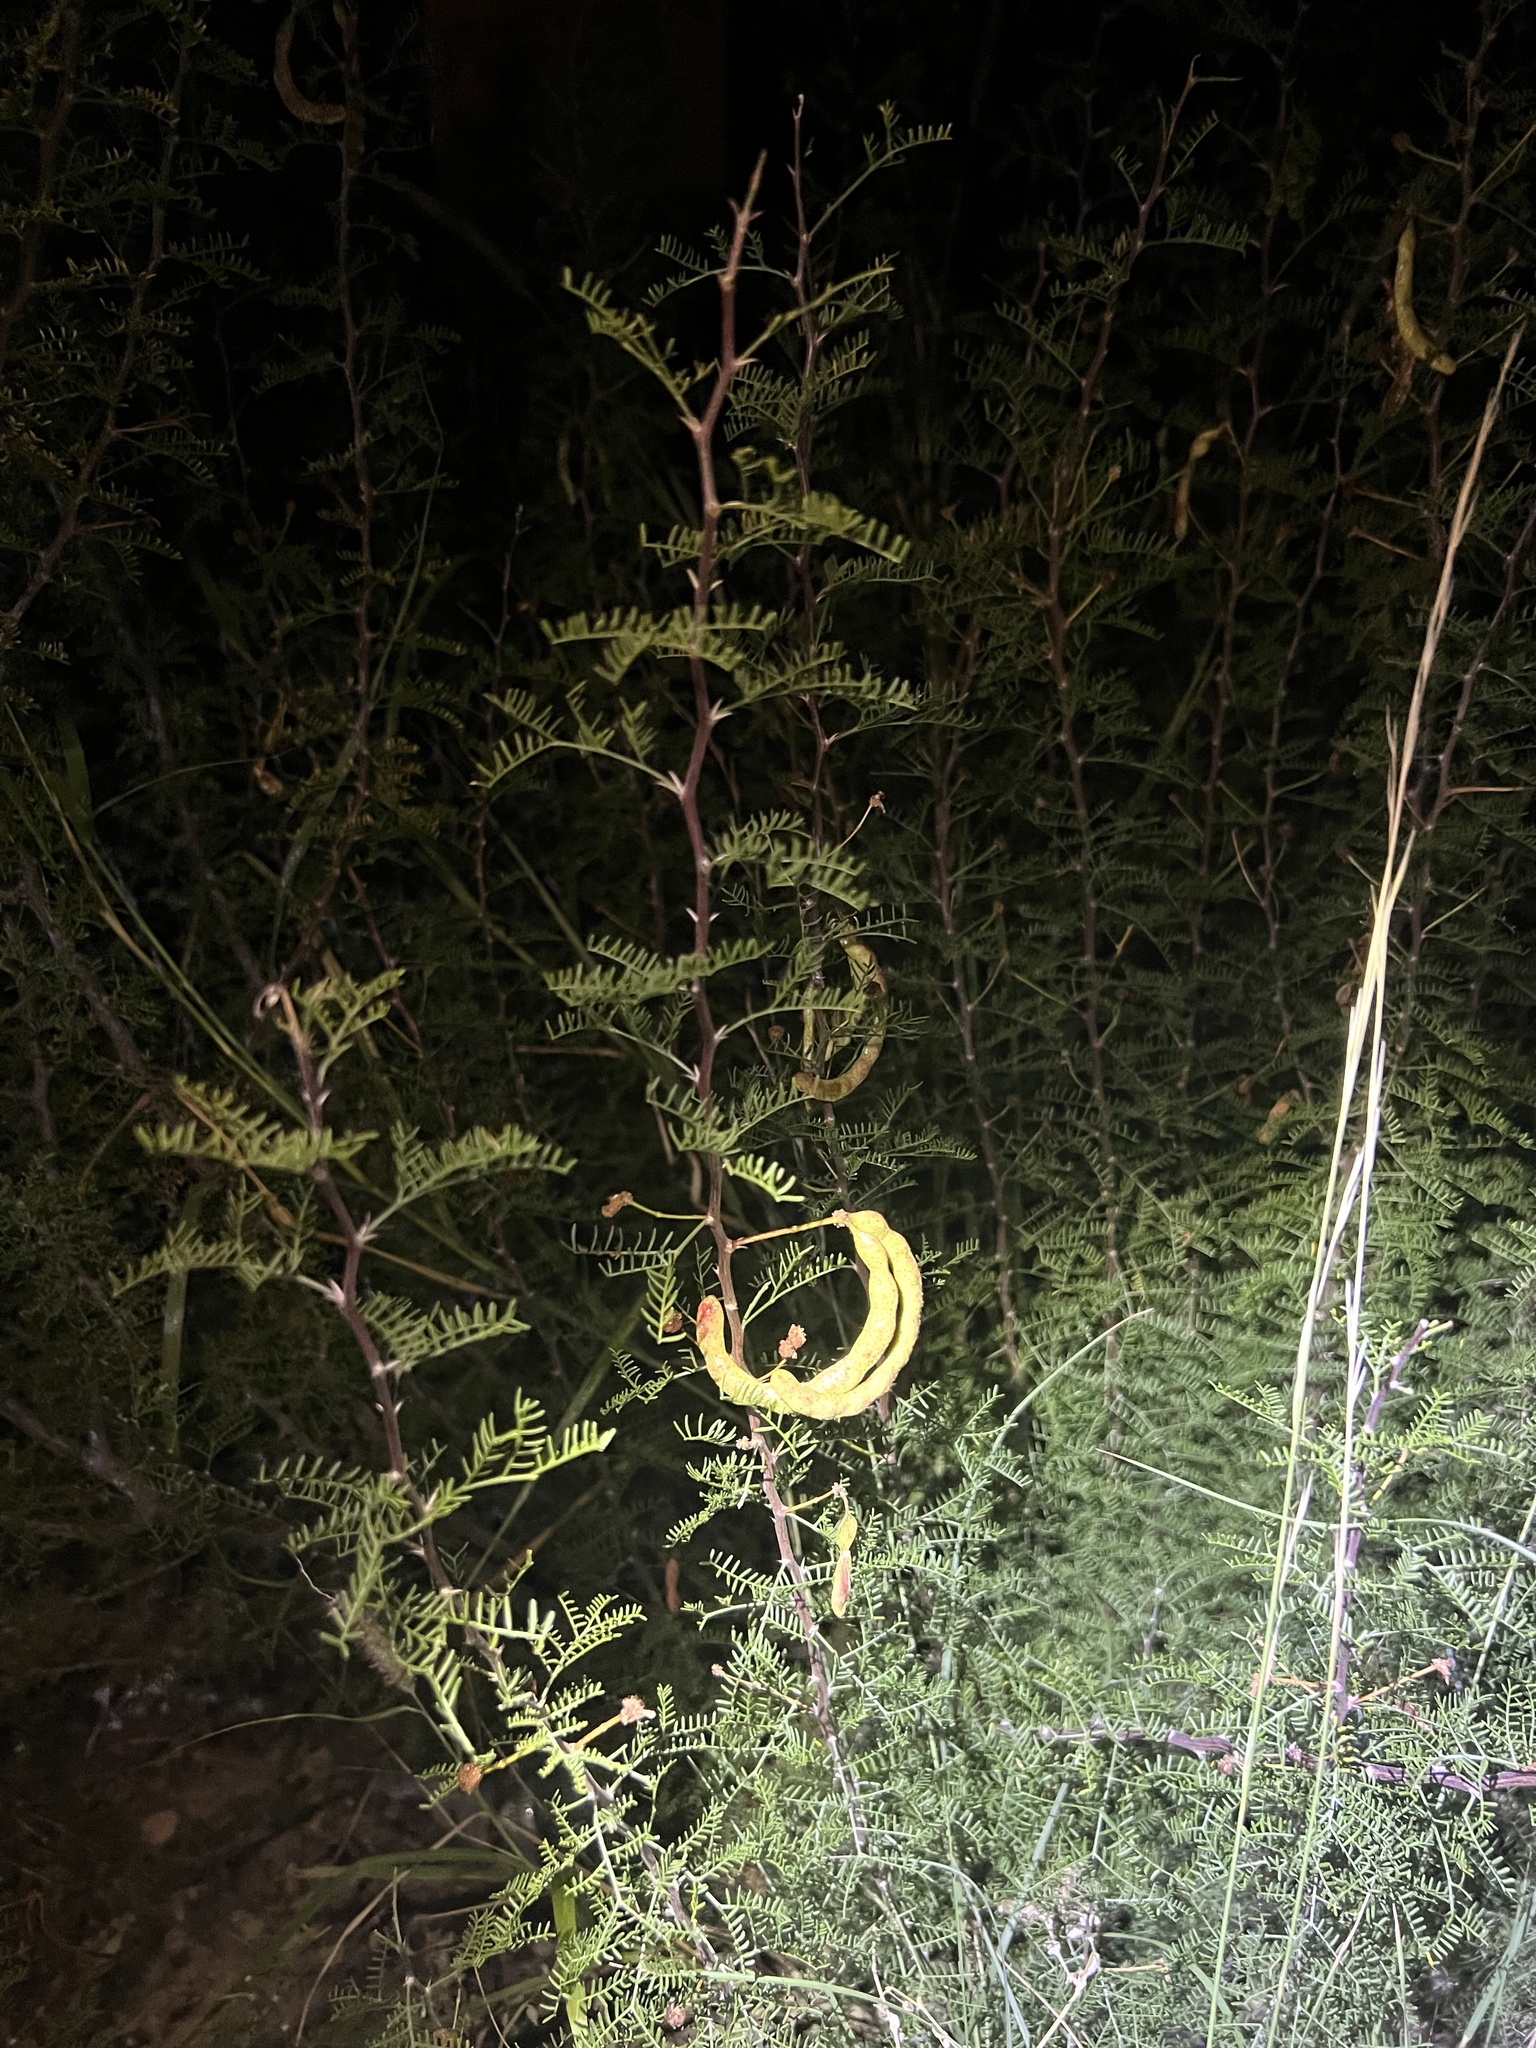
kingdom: Plantae
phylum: Tracheophyta
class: Magnoliopsida
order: Fabales
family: Fabaceae
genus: Vachellia
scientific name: Vachellia schottii
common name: Schott acacia
